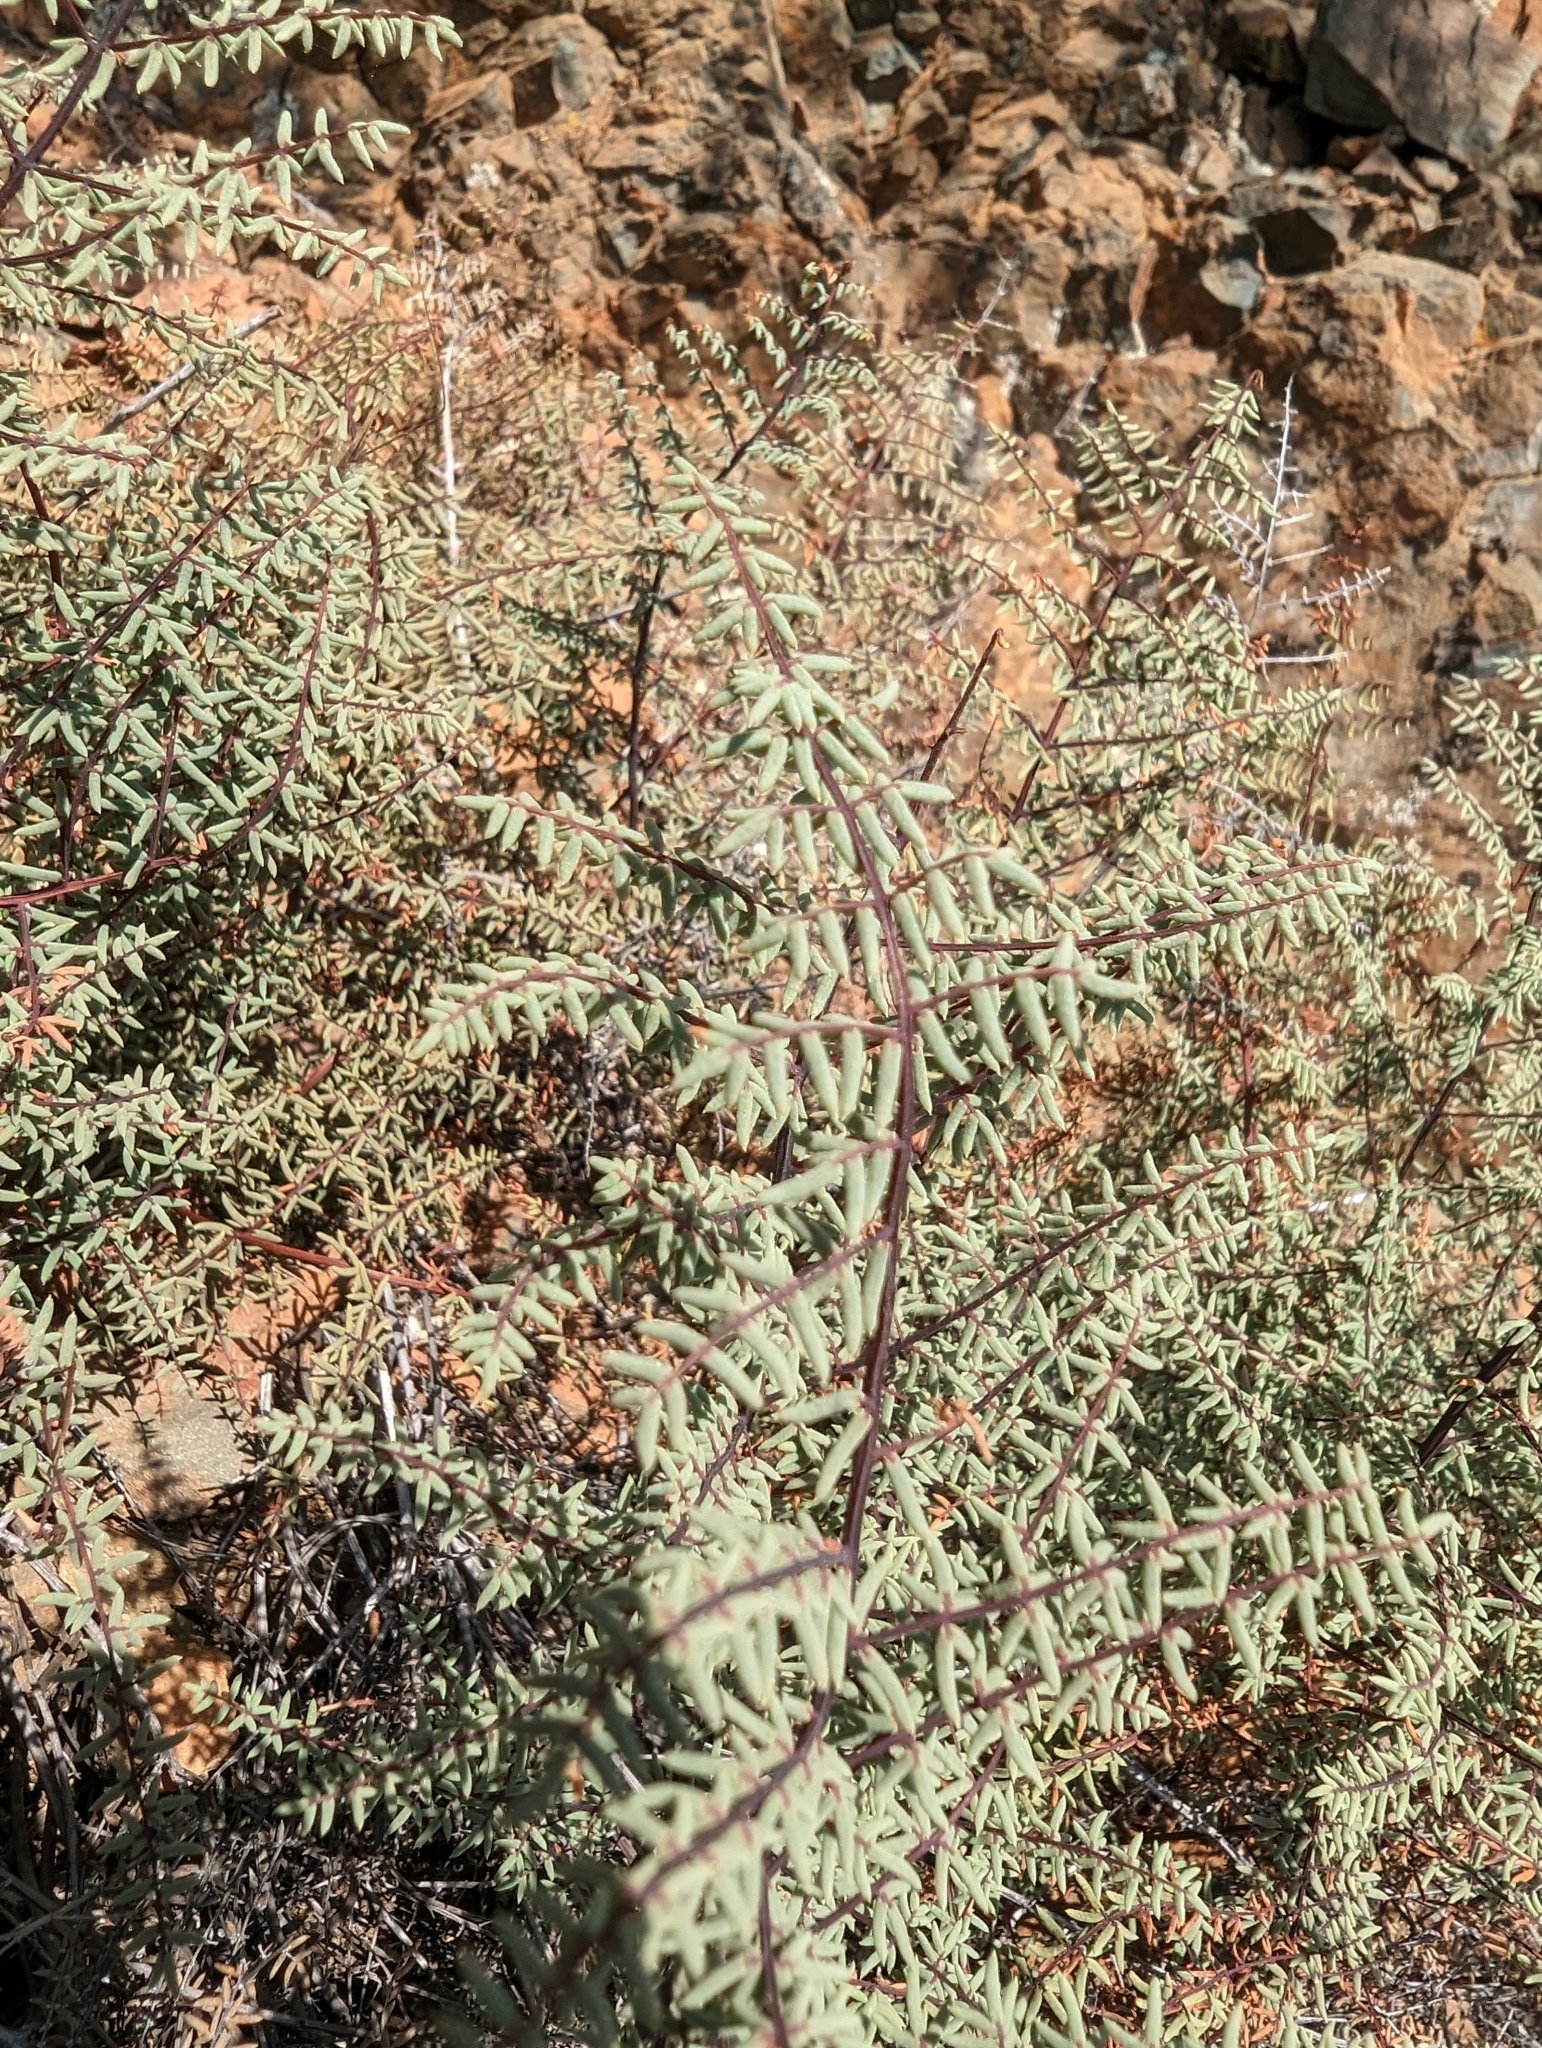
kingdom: Plantae
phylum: Tracheophyta
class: Polypodiopsida
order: Polypodiales
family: Pteridaceae
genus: Pellaea
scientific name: Pellaea mucronata
